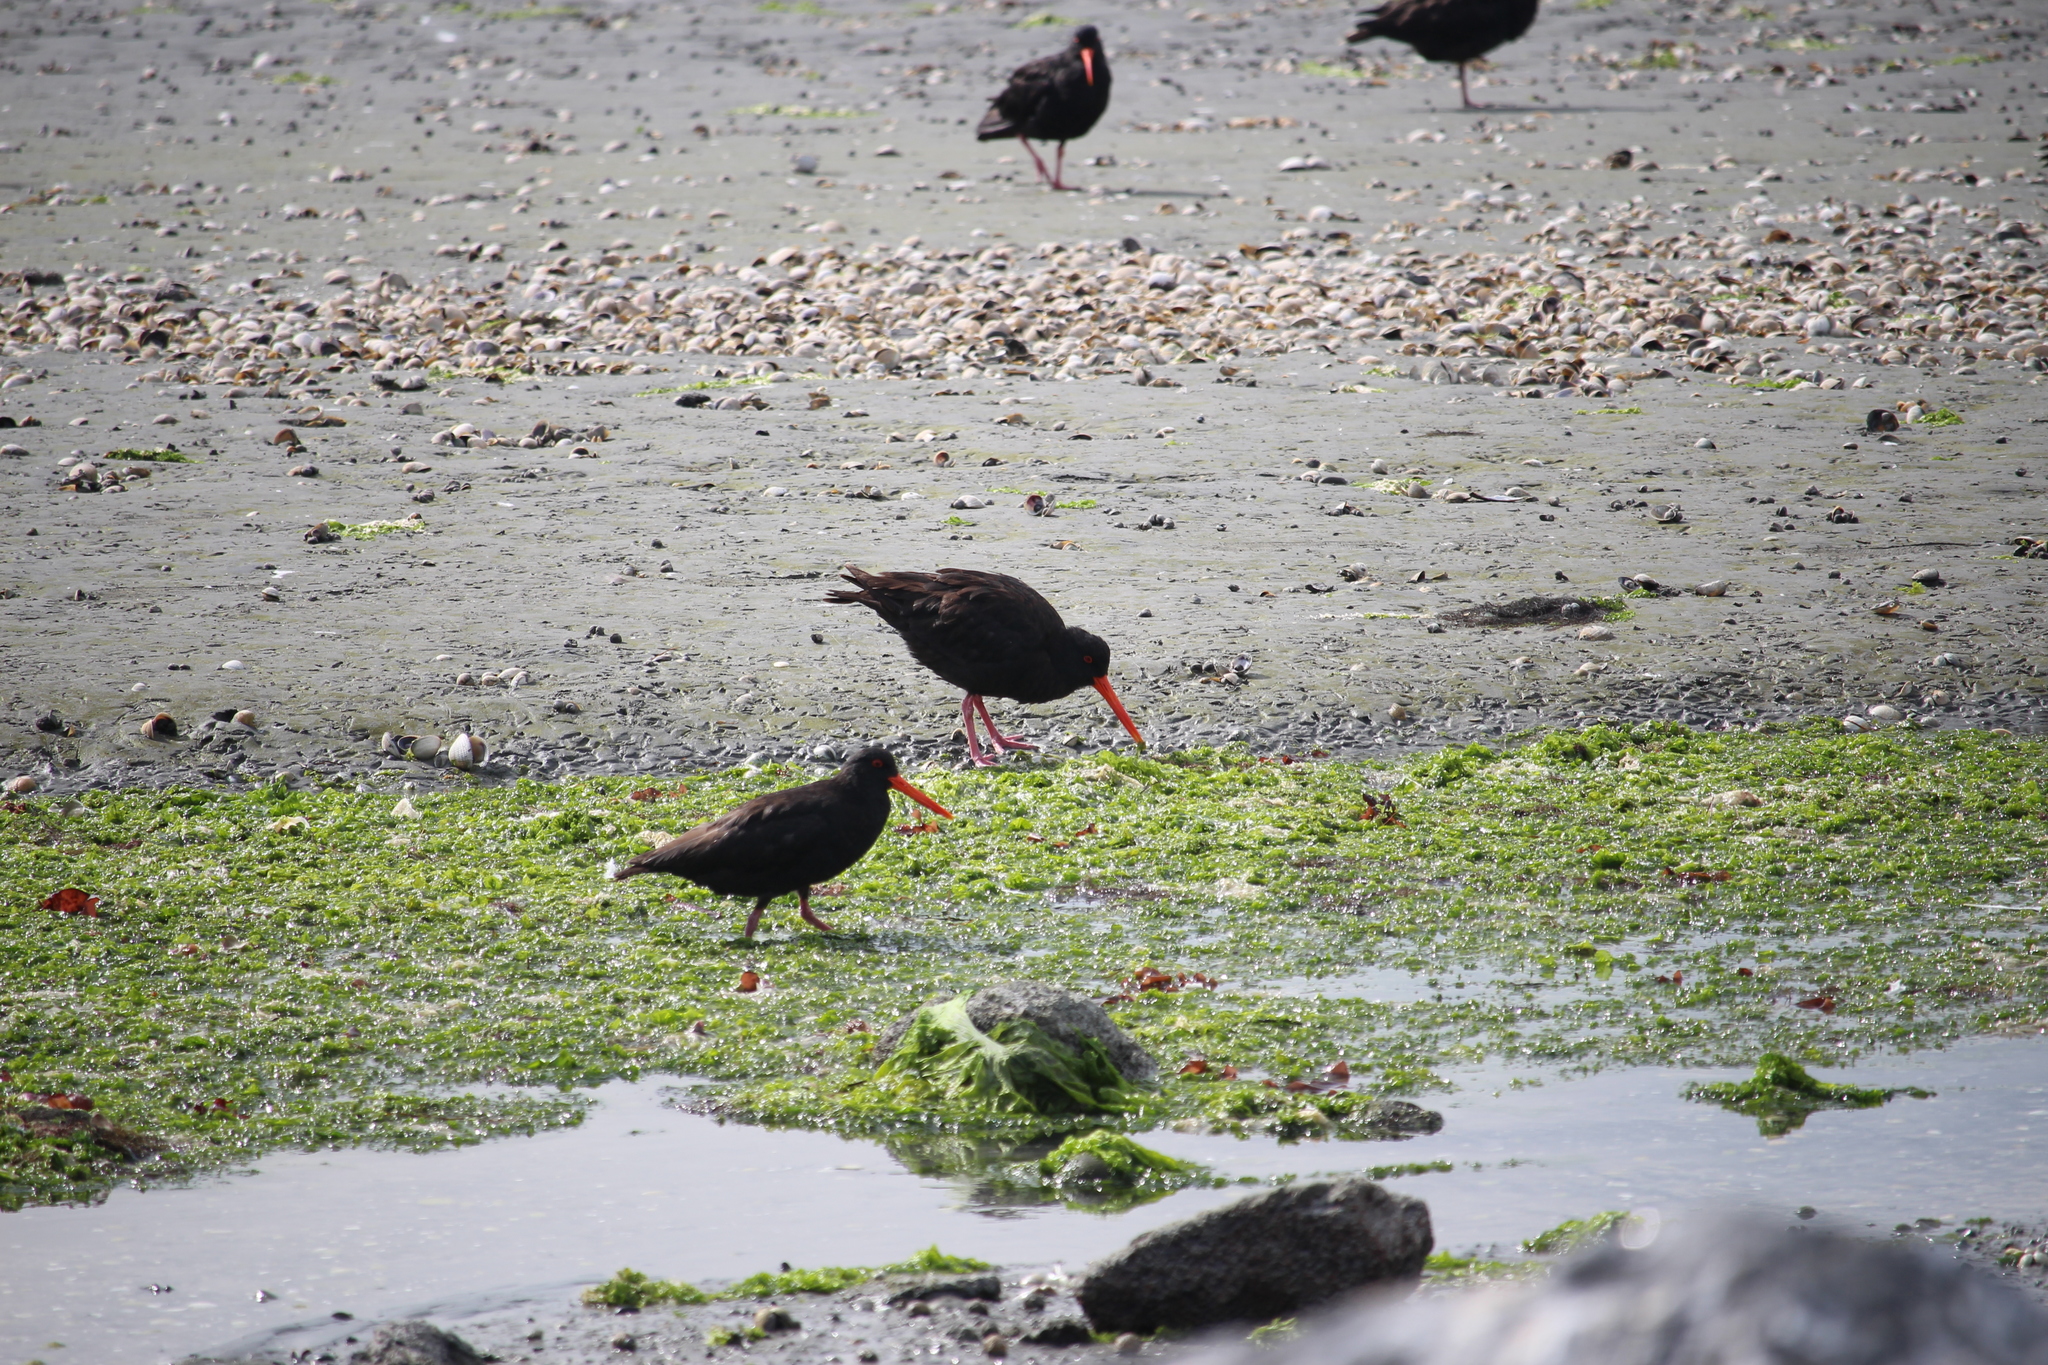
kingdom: Animalia
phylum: Chordata
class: Aves
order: Charadriiformes
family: Haematopodidae
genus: Haematopus
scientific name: Haematopus unicolor
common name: Variable oystercatcher
